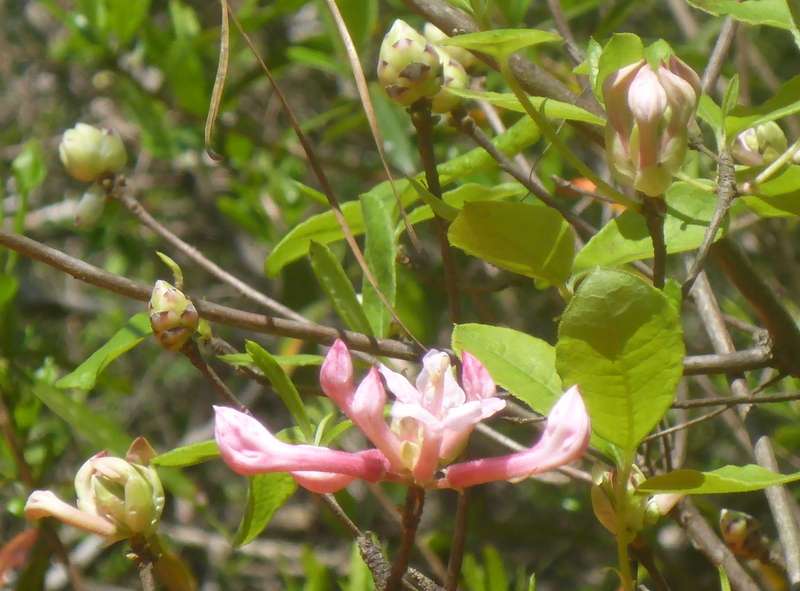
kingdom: Plantae
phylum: Tracheophyta
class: Magnoliopsida
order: Ericales
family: Ericaceae
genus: Rhododendron
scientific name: Rhododendron canescens
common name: Mountain azalea
